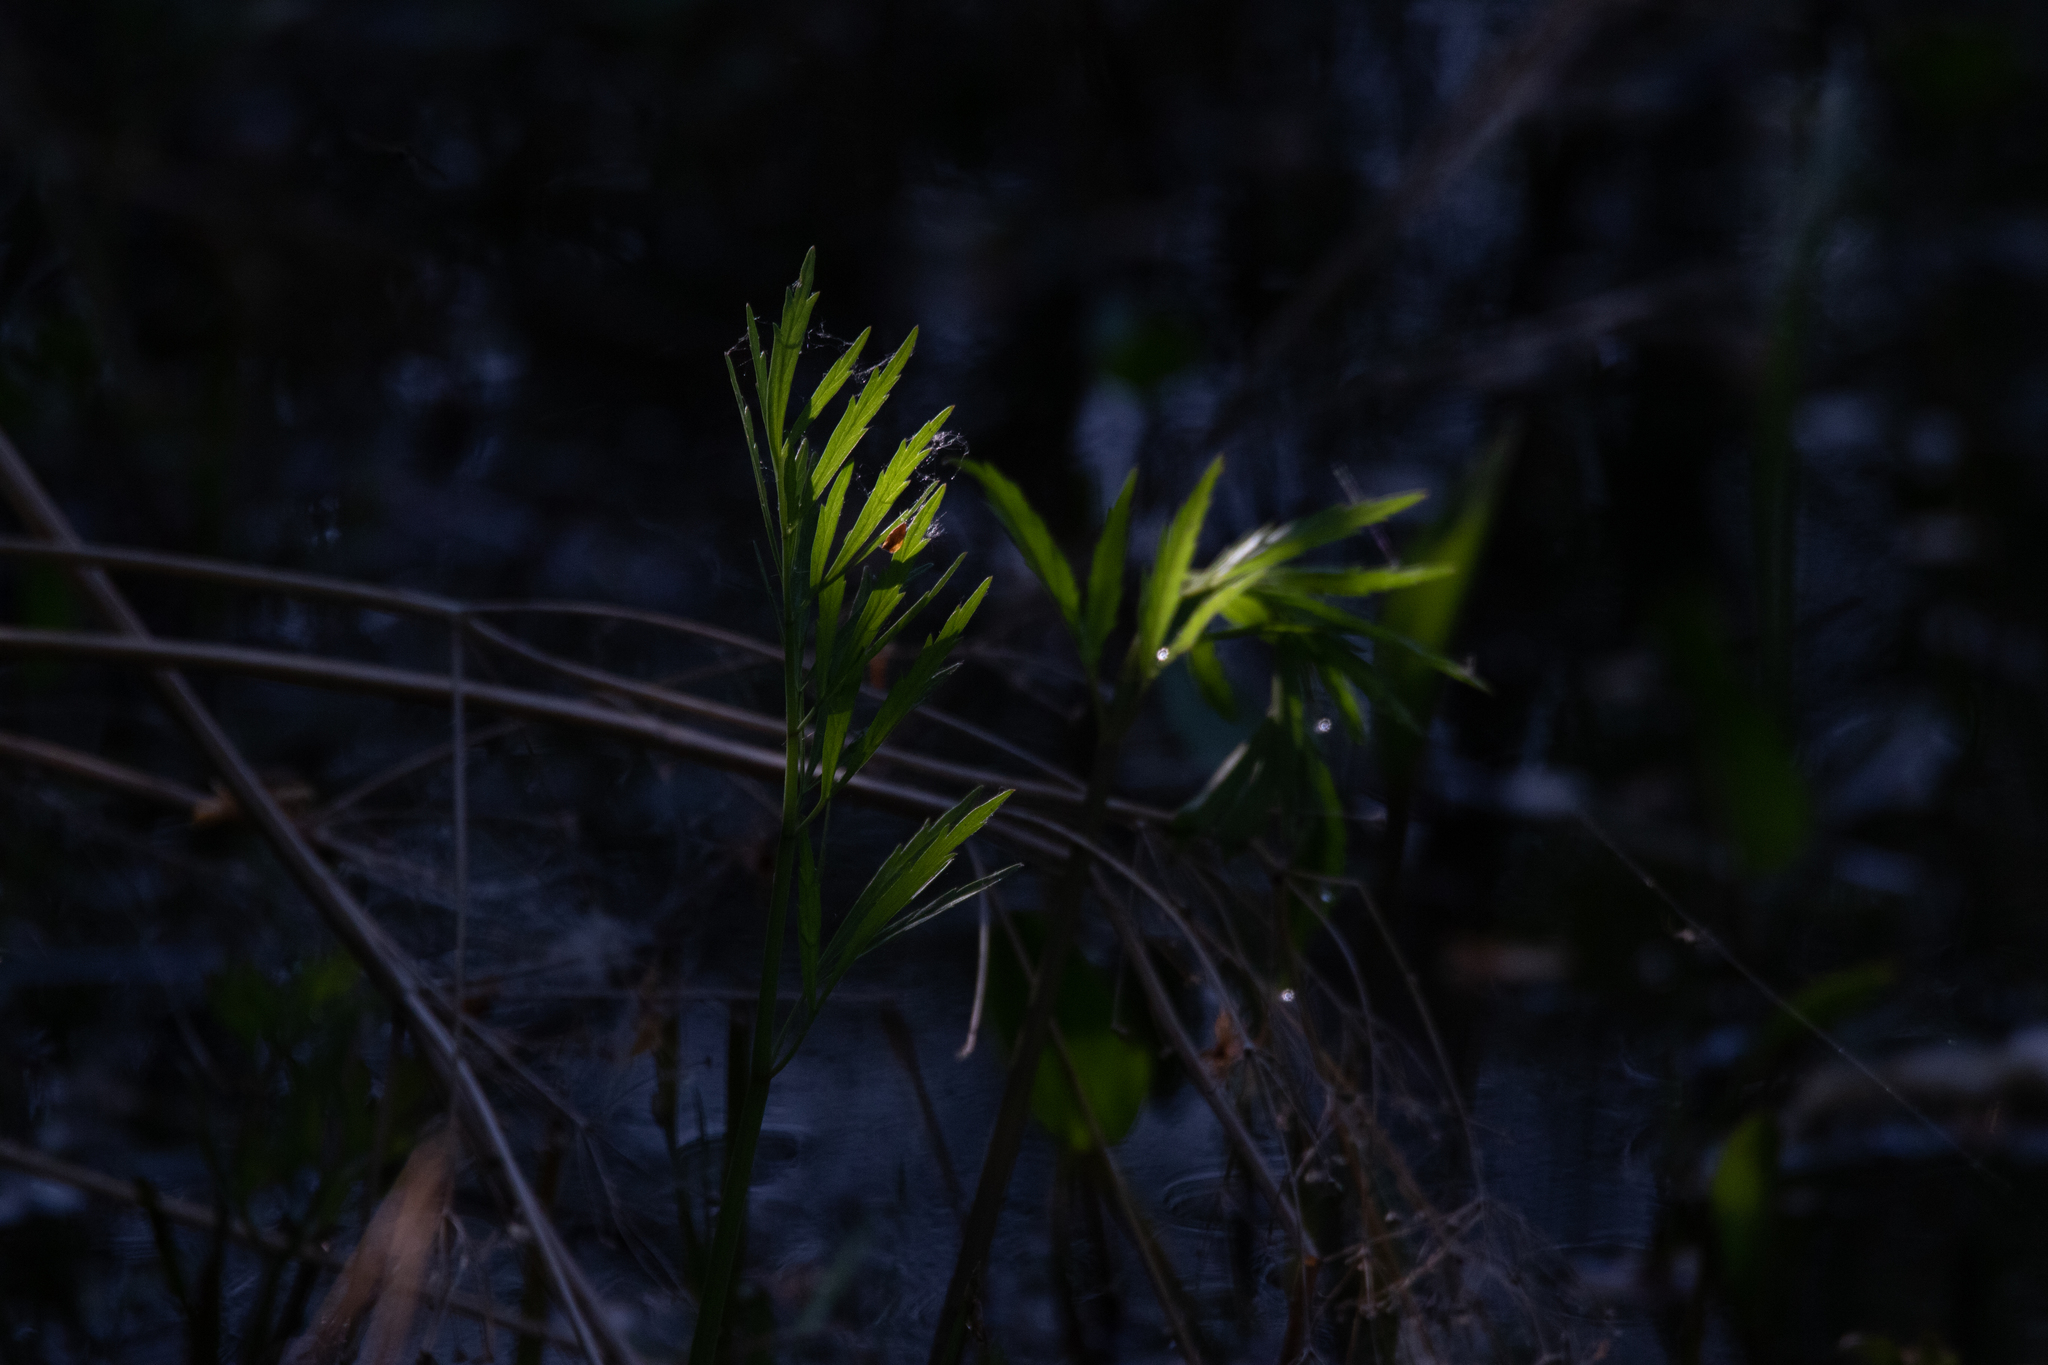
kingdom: Plantae
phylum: Tracheophyta
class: Magnoliopsida
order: Apiales
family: Apiaceae
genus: Cicuta
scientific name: Cicuta virosa
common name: Cowbane
